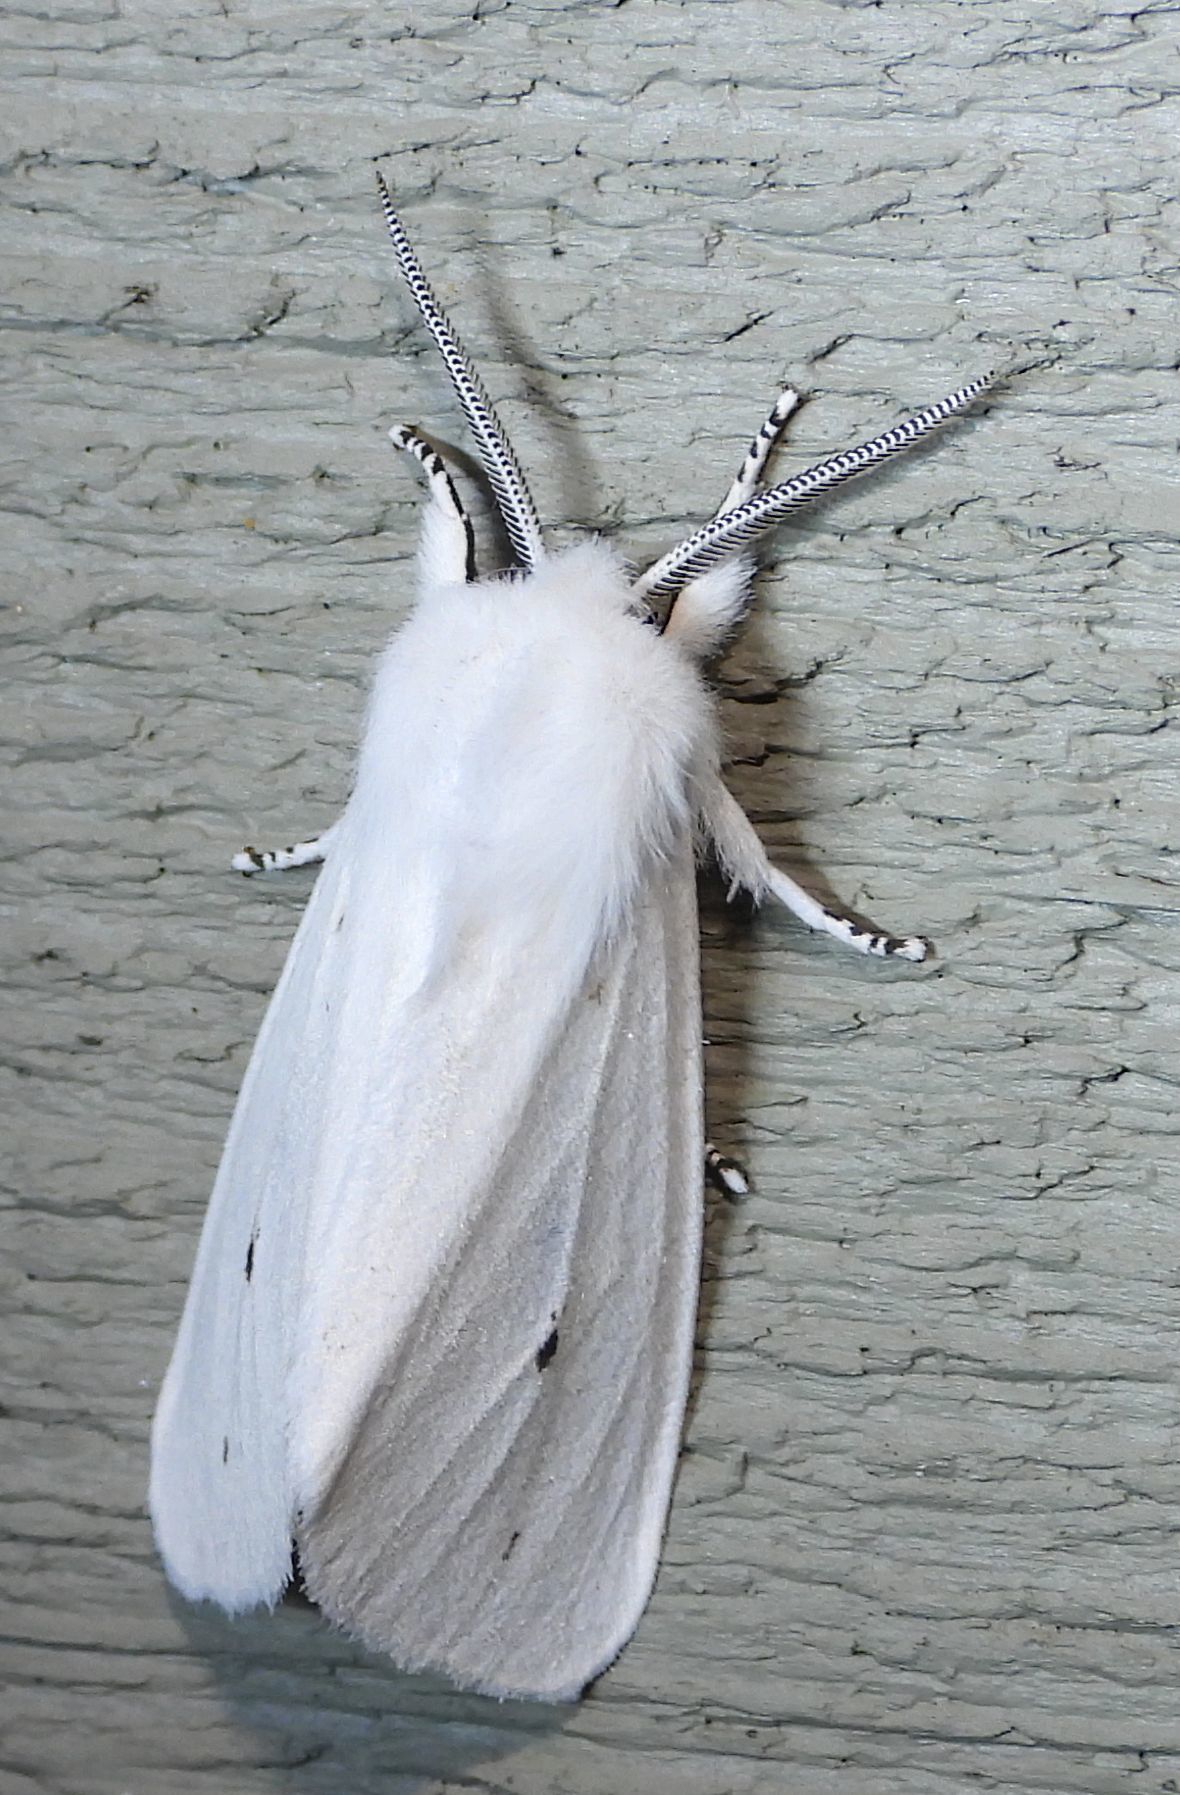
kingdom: Animalia
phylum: Arthropoda
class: Insecta
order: Lepidoptera
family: Erebidae
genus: Spilosoma
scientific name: Spilosoma virginica
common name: Virginia tiger moth
